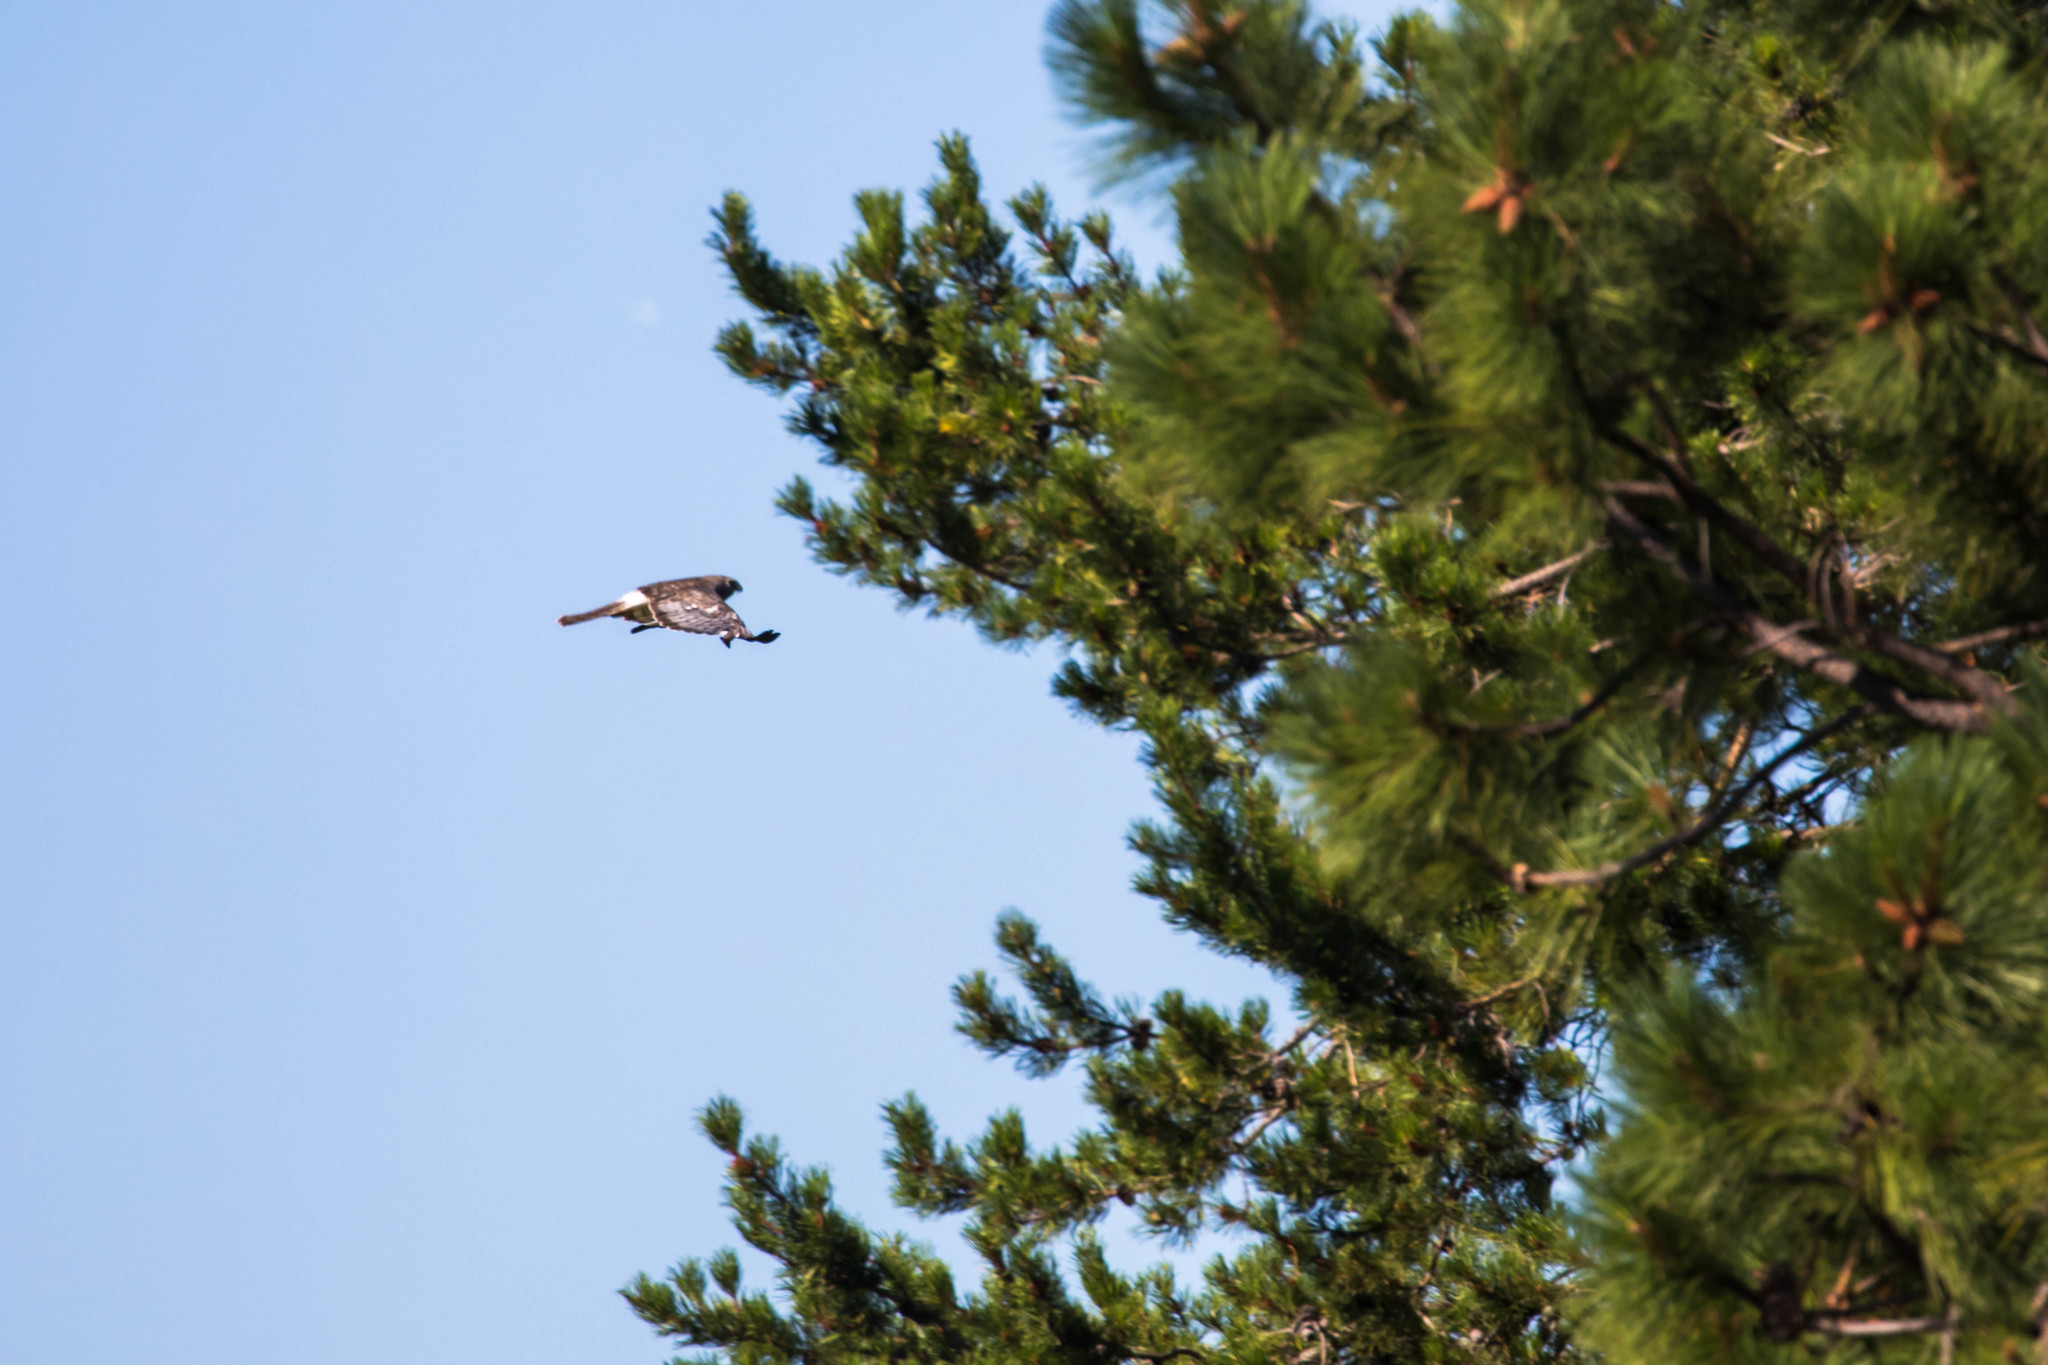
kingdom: Animalia
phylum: Chordata
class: Aves
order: Accipitriformes
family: Accipitridae
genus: Circus
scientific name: Circus cyaneus
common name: Hen harrier
